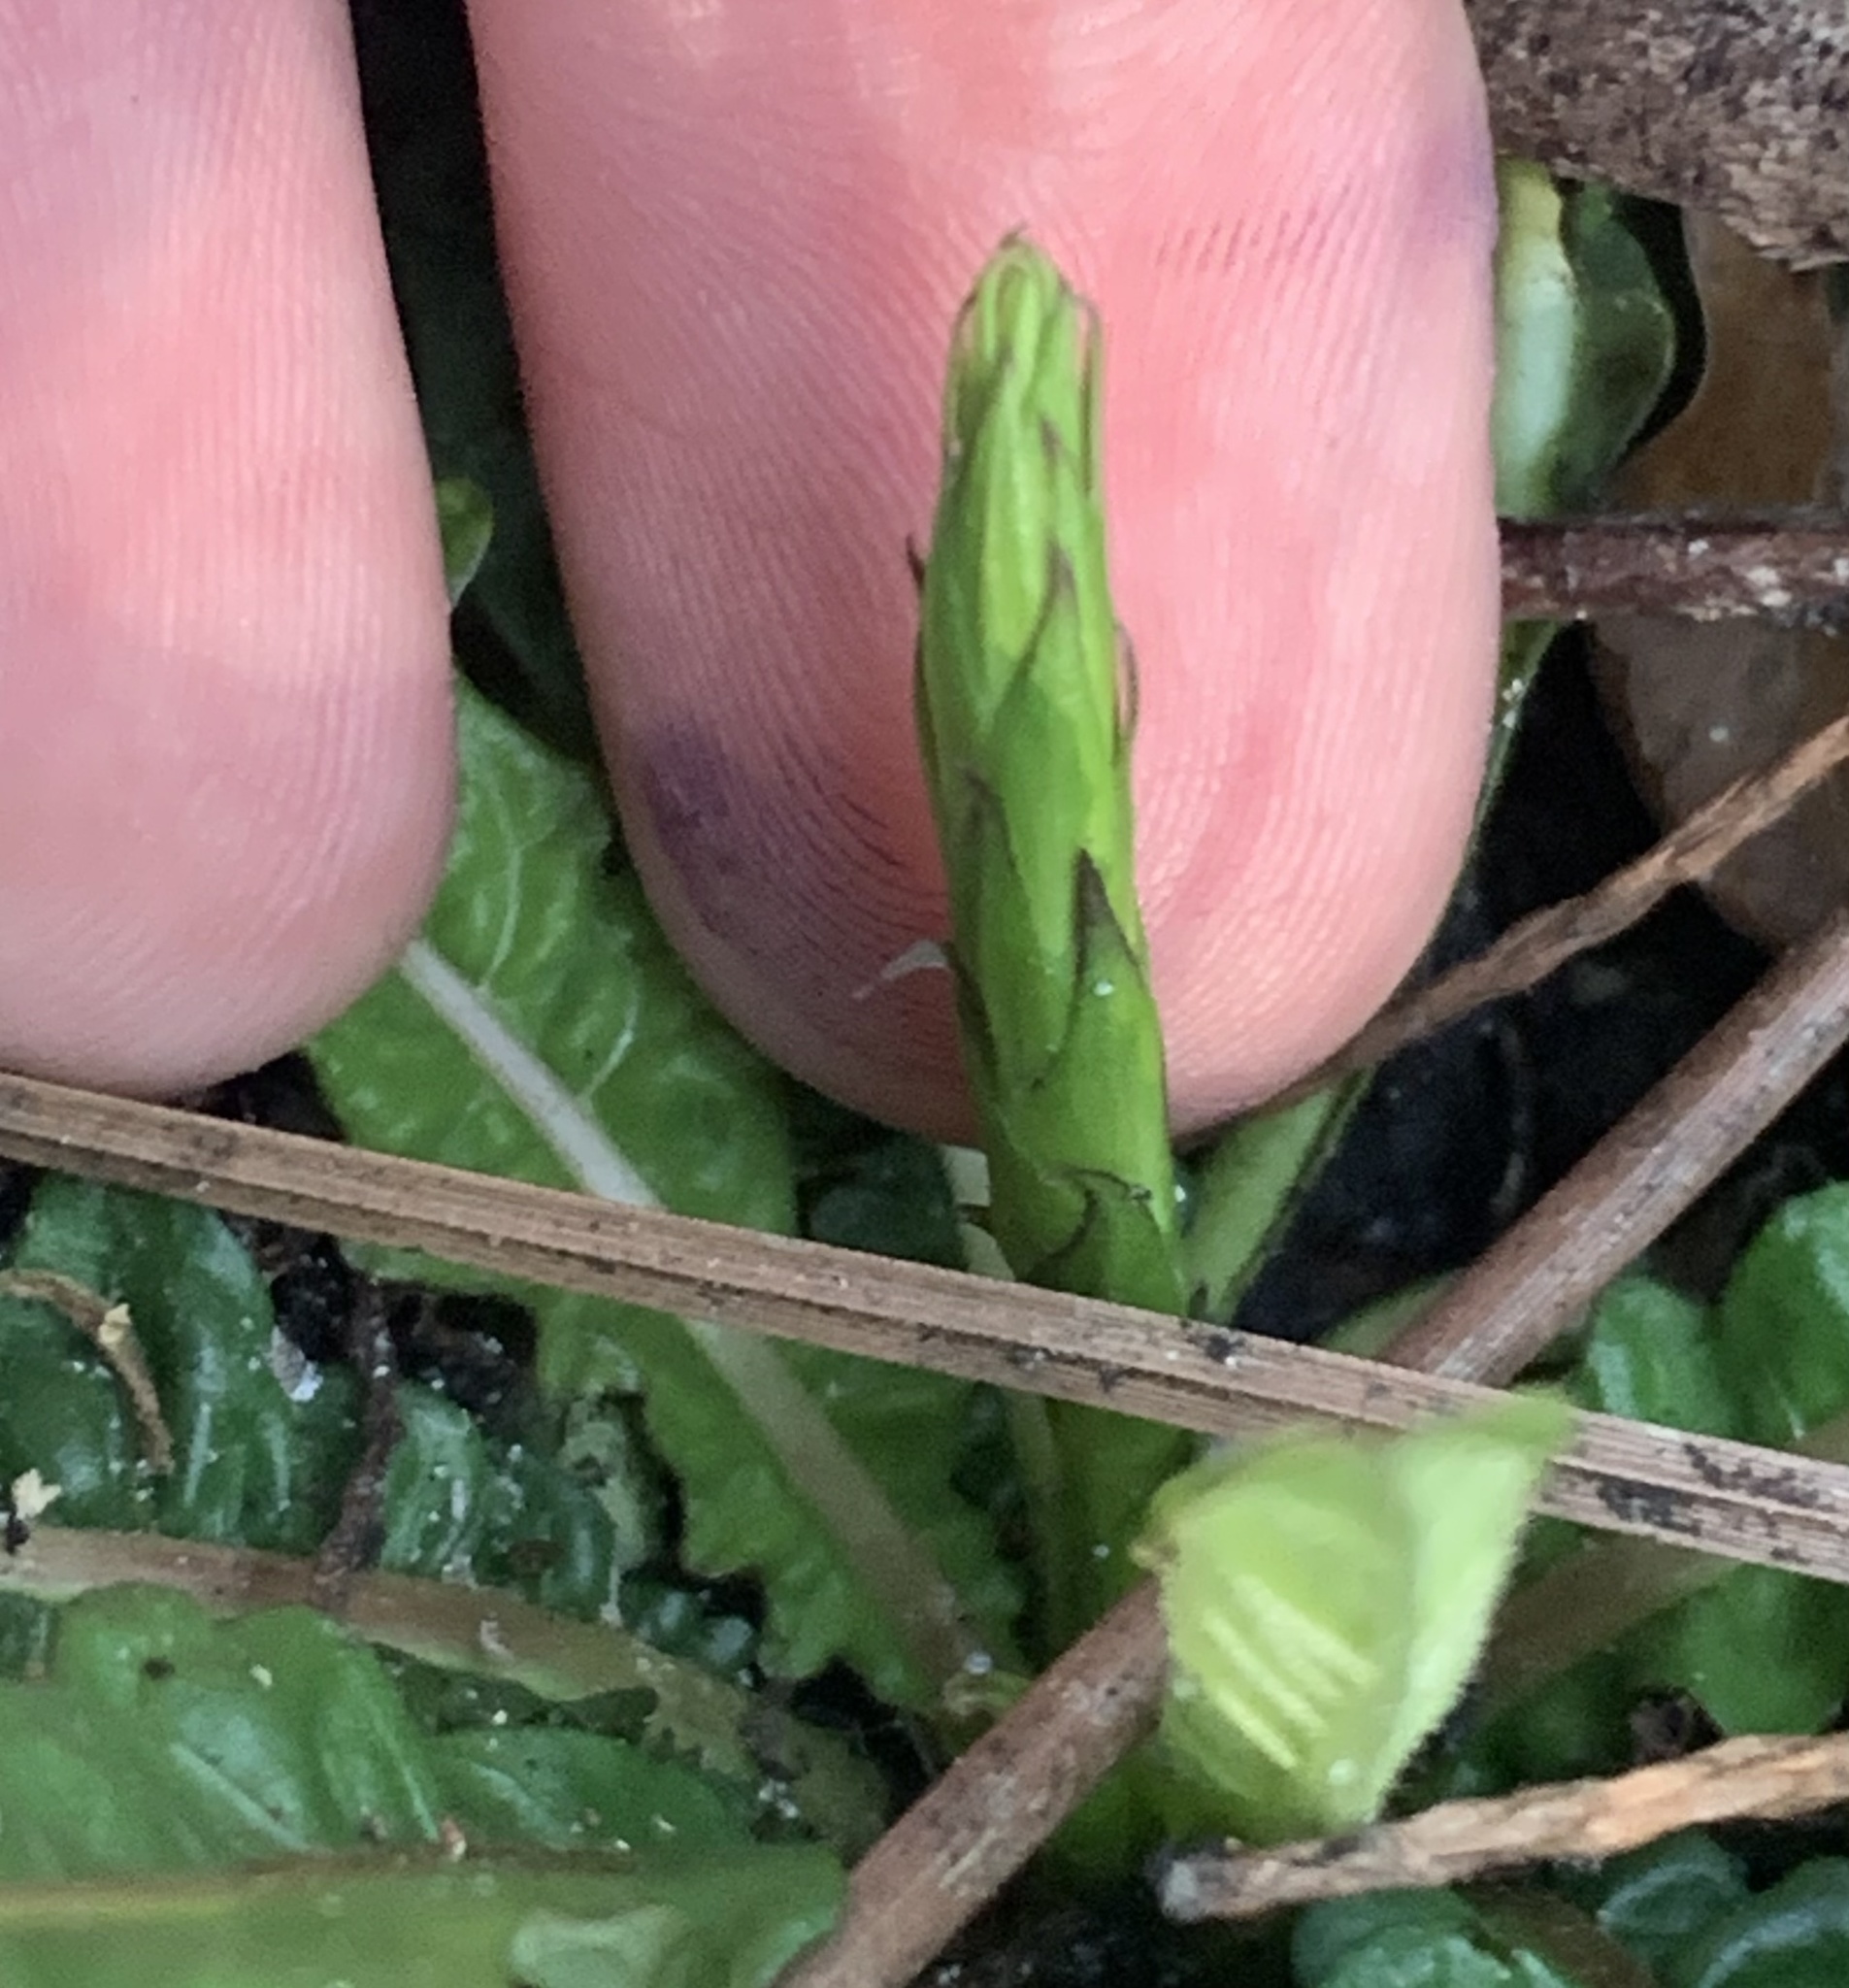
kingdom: Plantae
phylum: Tracheophyta
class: Magnoliopsida
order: Lamiales
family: Acanthaceae
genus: Elytraria
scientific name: Elytraria caroliniensis
